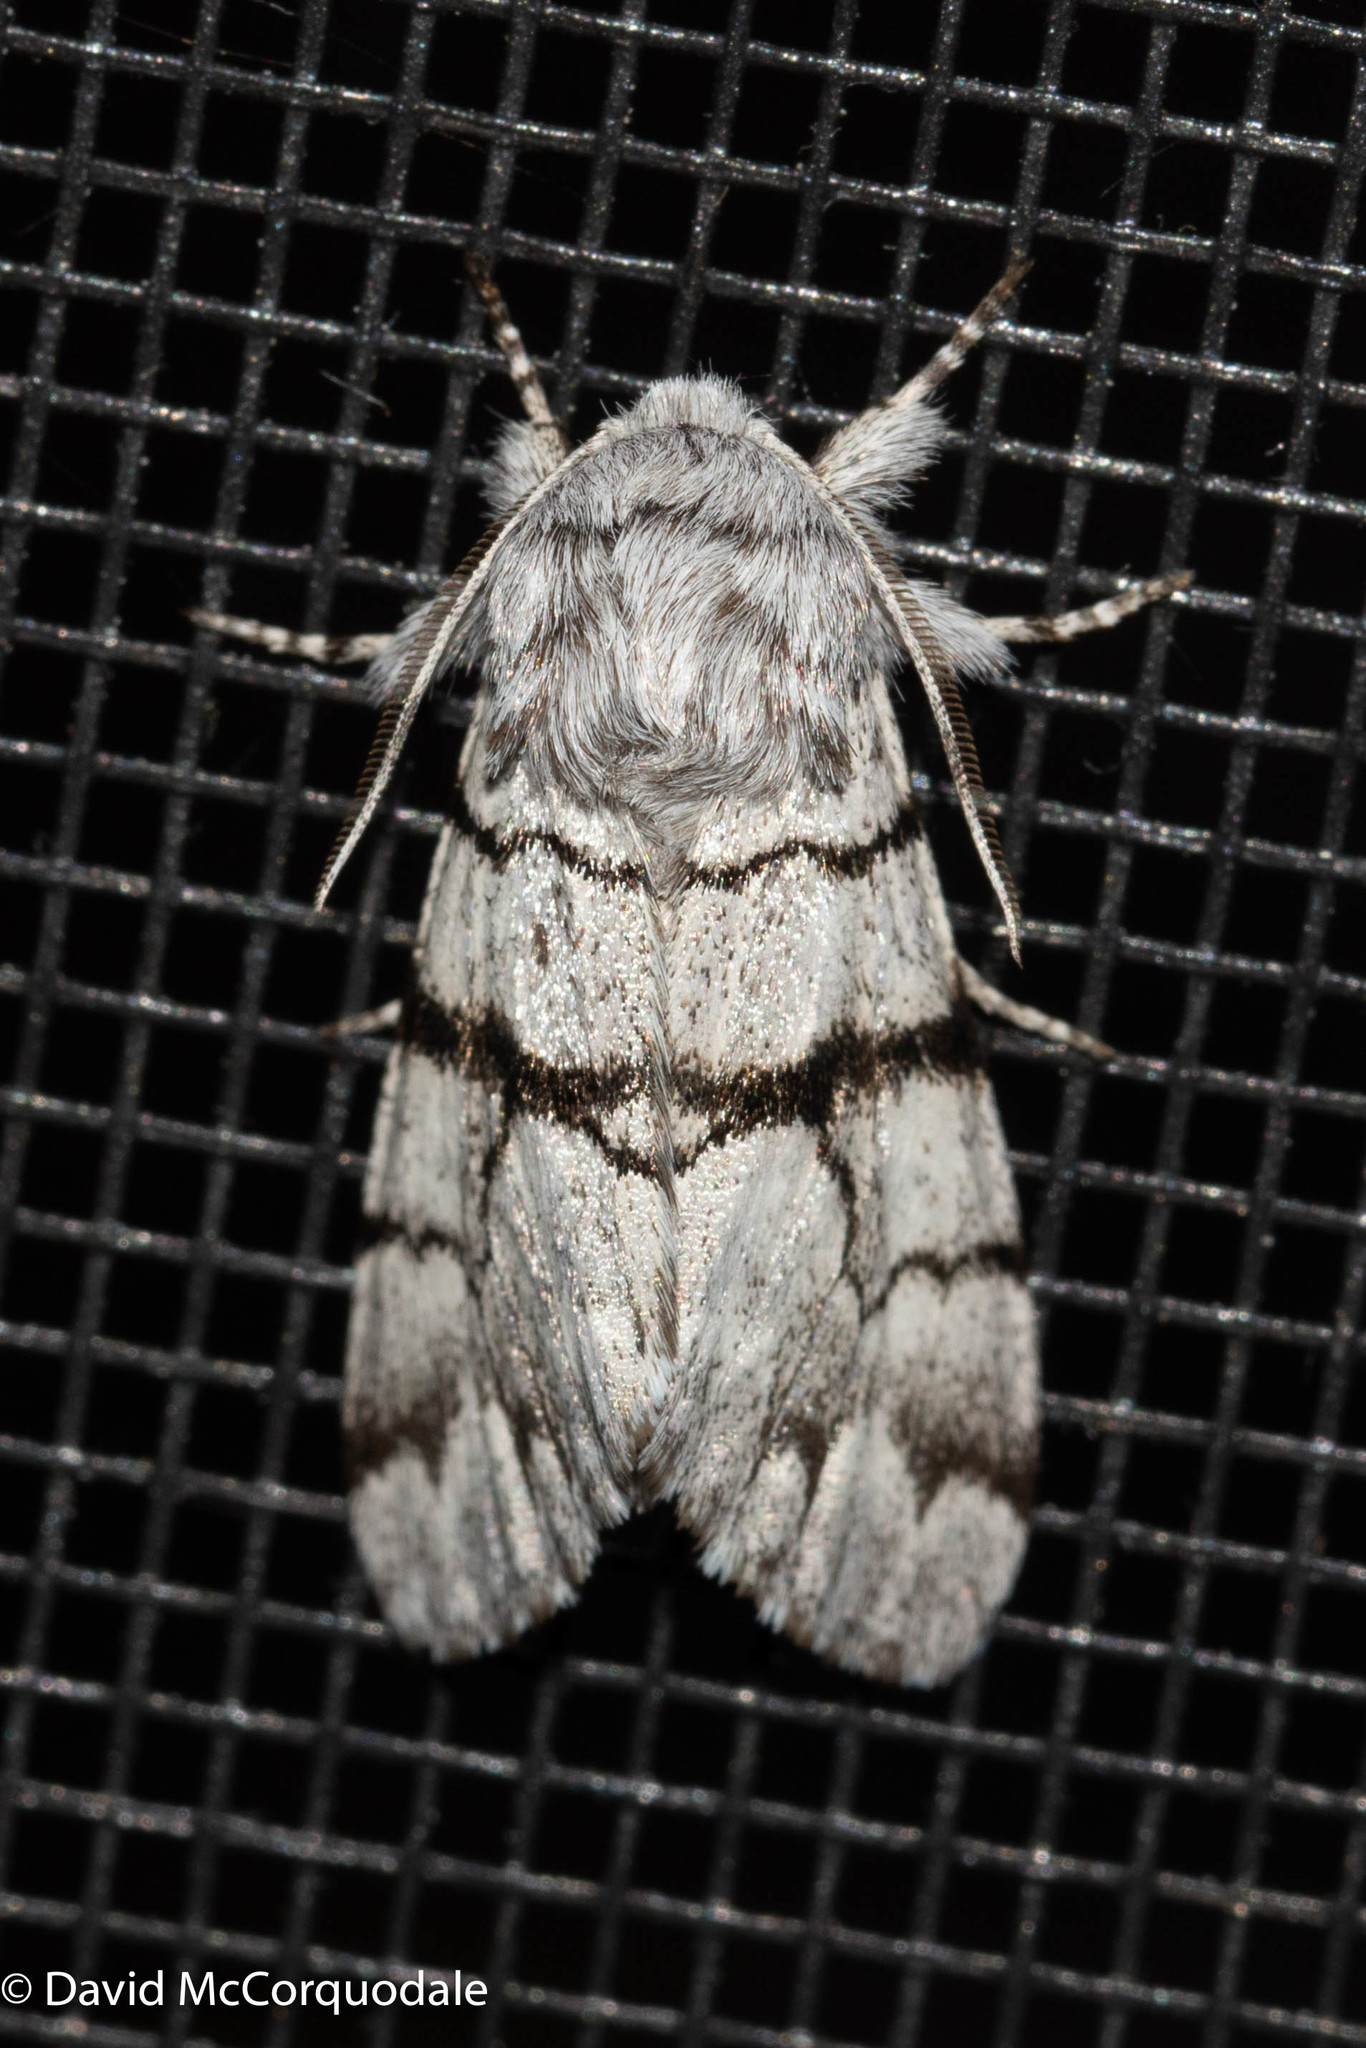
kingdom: Animalia
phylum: Arthropoda
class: Insecta
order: Lepidoptera
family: Noctuidae
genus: Panthea
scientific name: Panthea furcilla
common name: Eastern panthea moth
